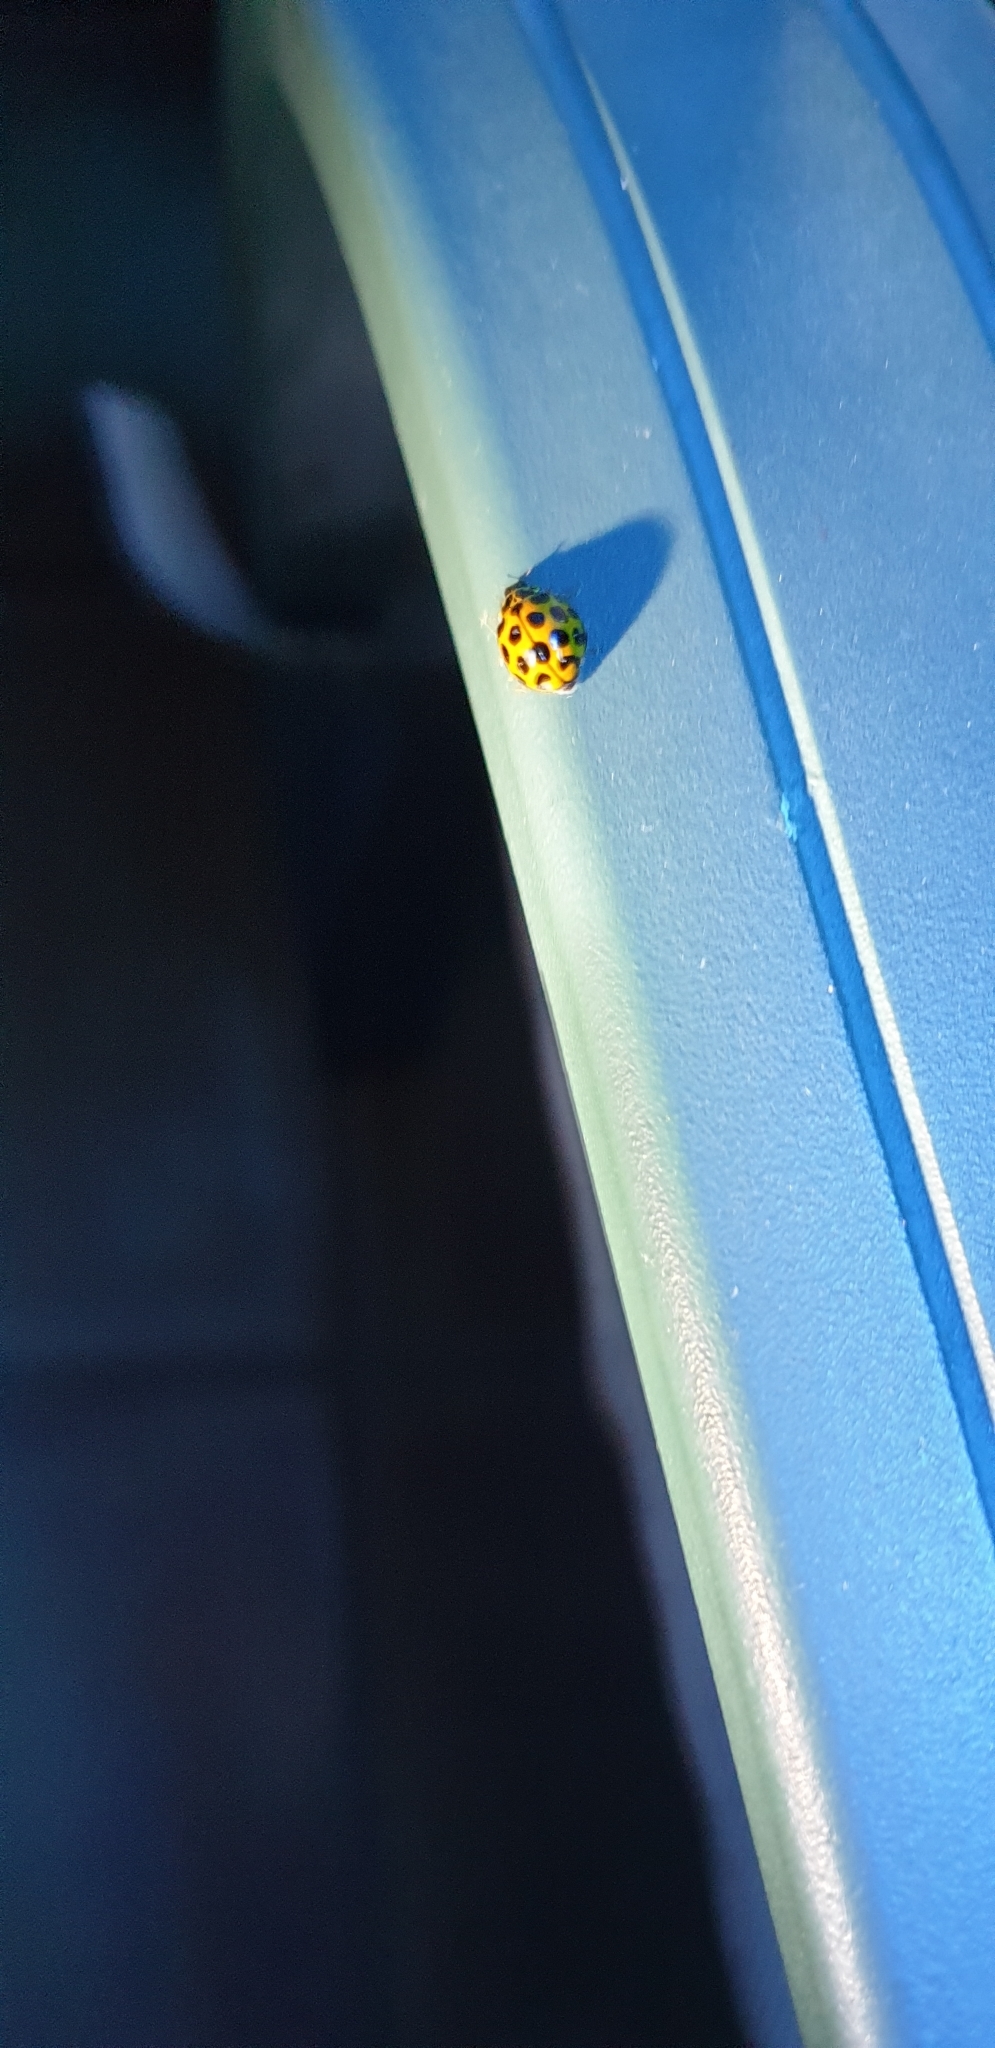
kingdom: Animalia
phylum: Arthropoda
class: Insecta
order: Coleoptera
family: Coccinellidae
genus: Harmonia
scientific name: Harmonia conformis
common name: Common spotted ladybird beetle
